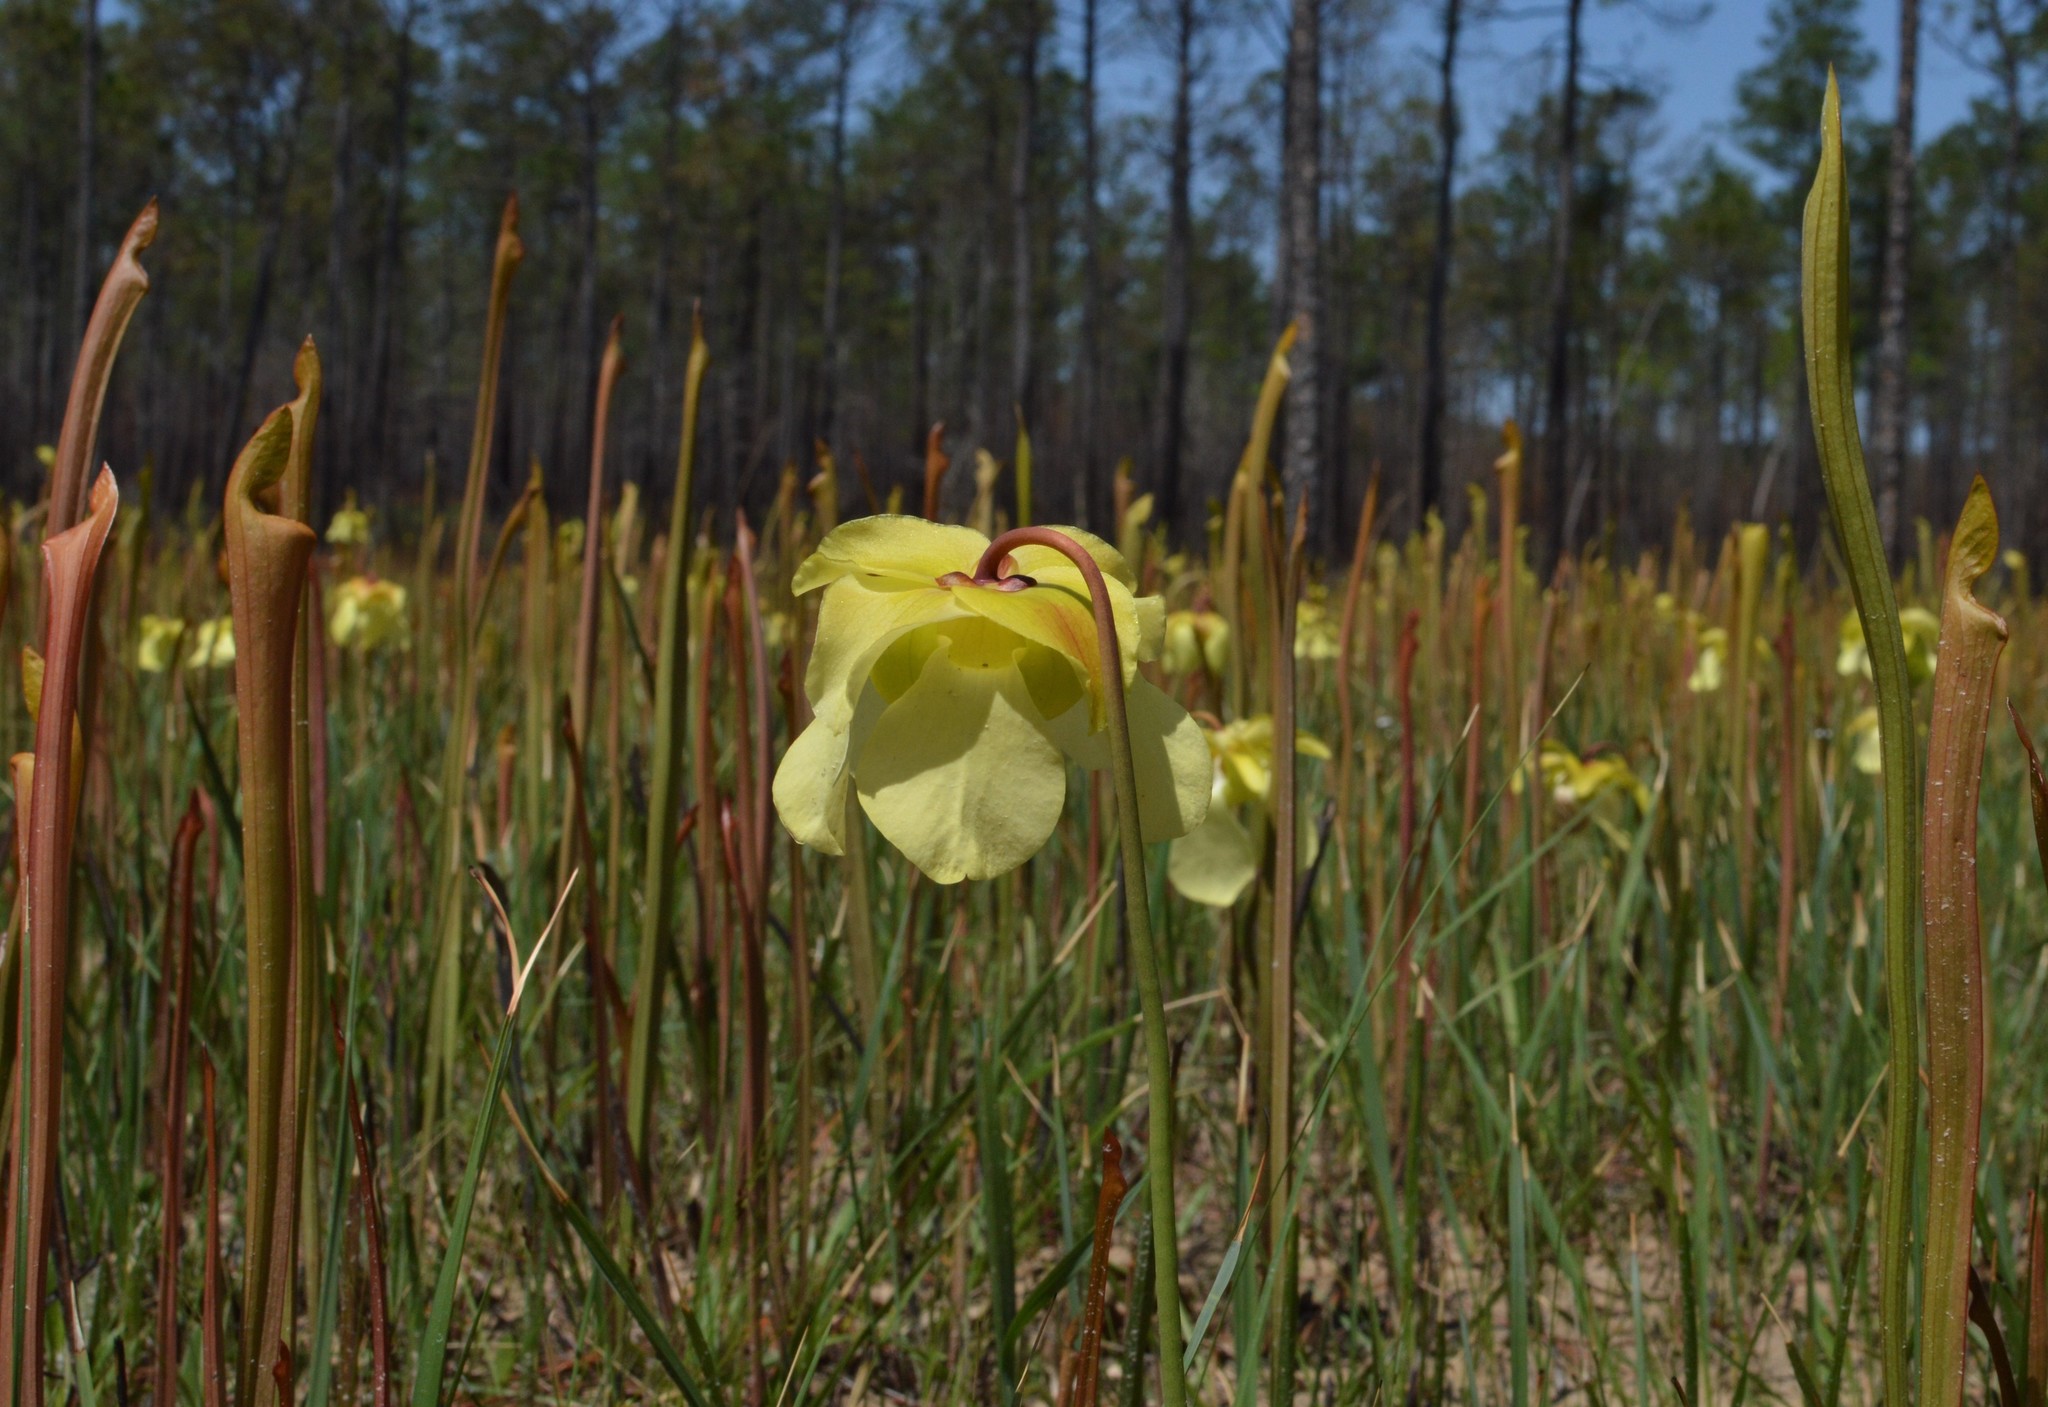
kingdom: Plantae
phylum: Tracheophyta
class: Magnoliopsida
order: Ericales
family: Sarraceniaceae
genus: Sarracenia
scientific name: Sarracenia alata
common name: Yellow trumpets
